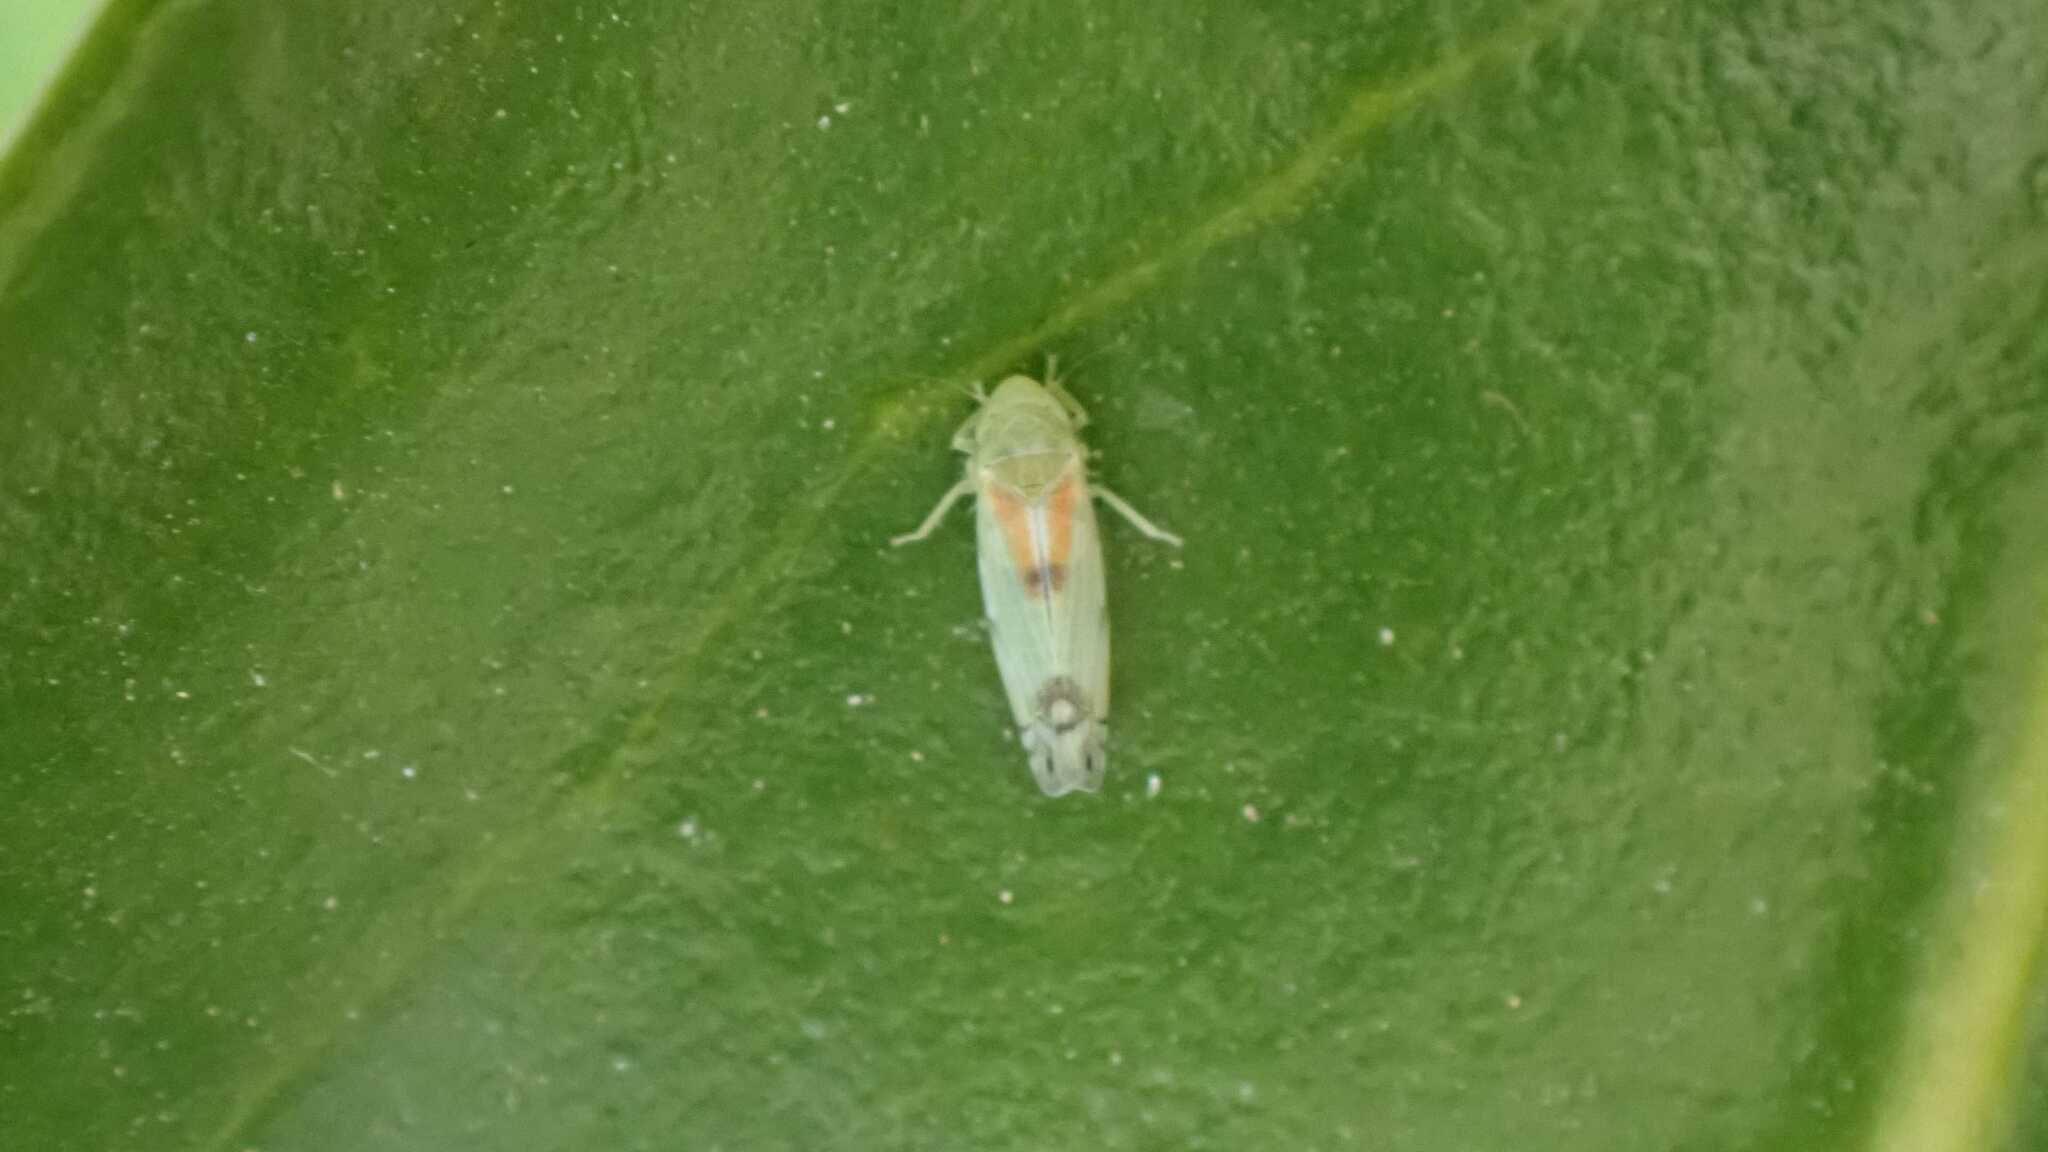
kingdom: Animalia
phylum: Arthropoda
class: Insecta
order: Hemiptera
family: Cicadellidae
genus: Zyginella
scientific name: Zyginella pulchra
